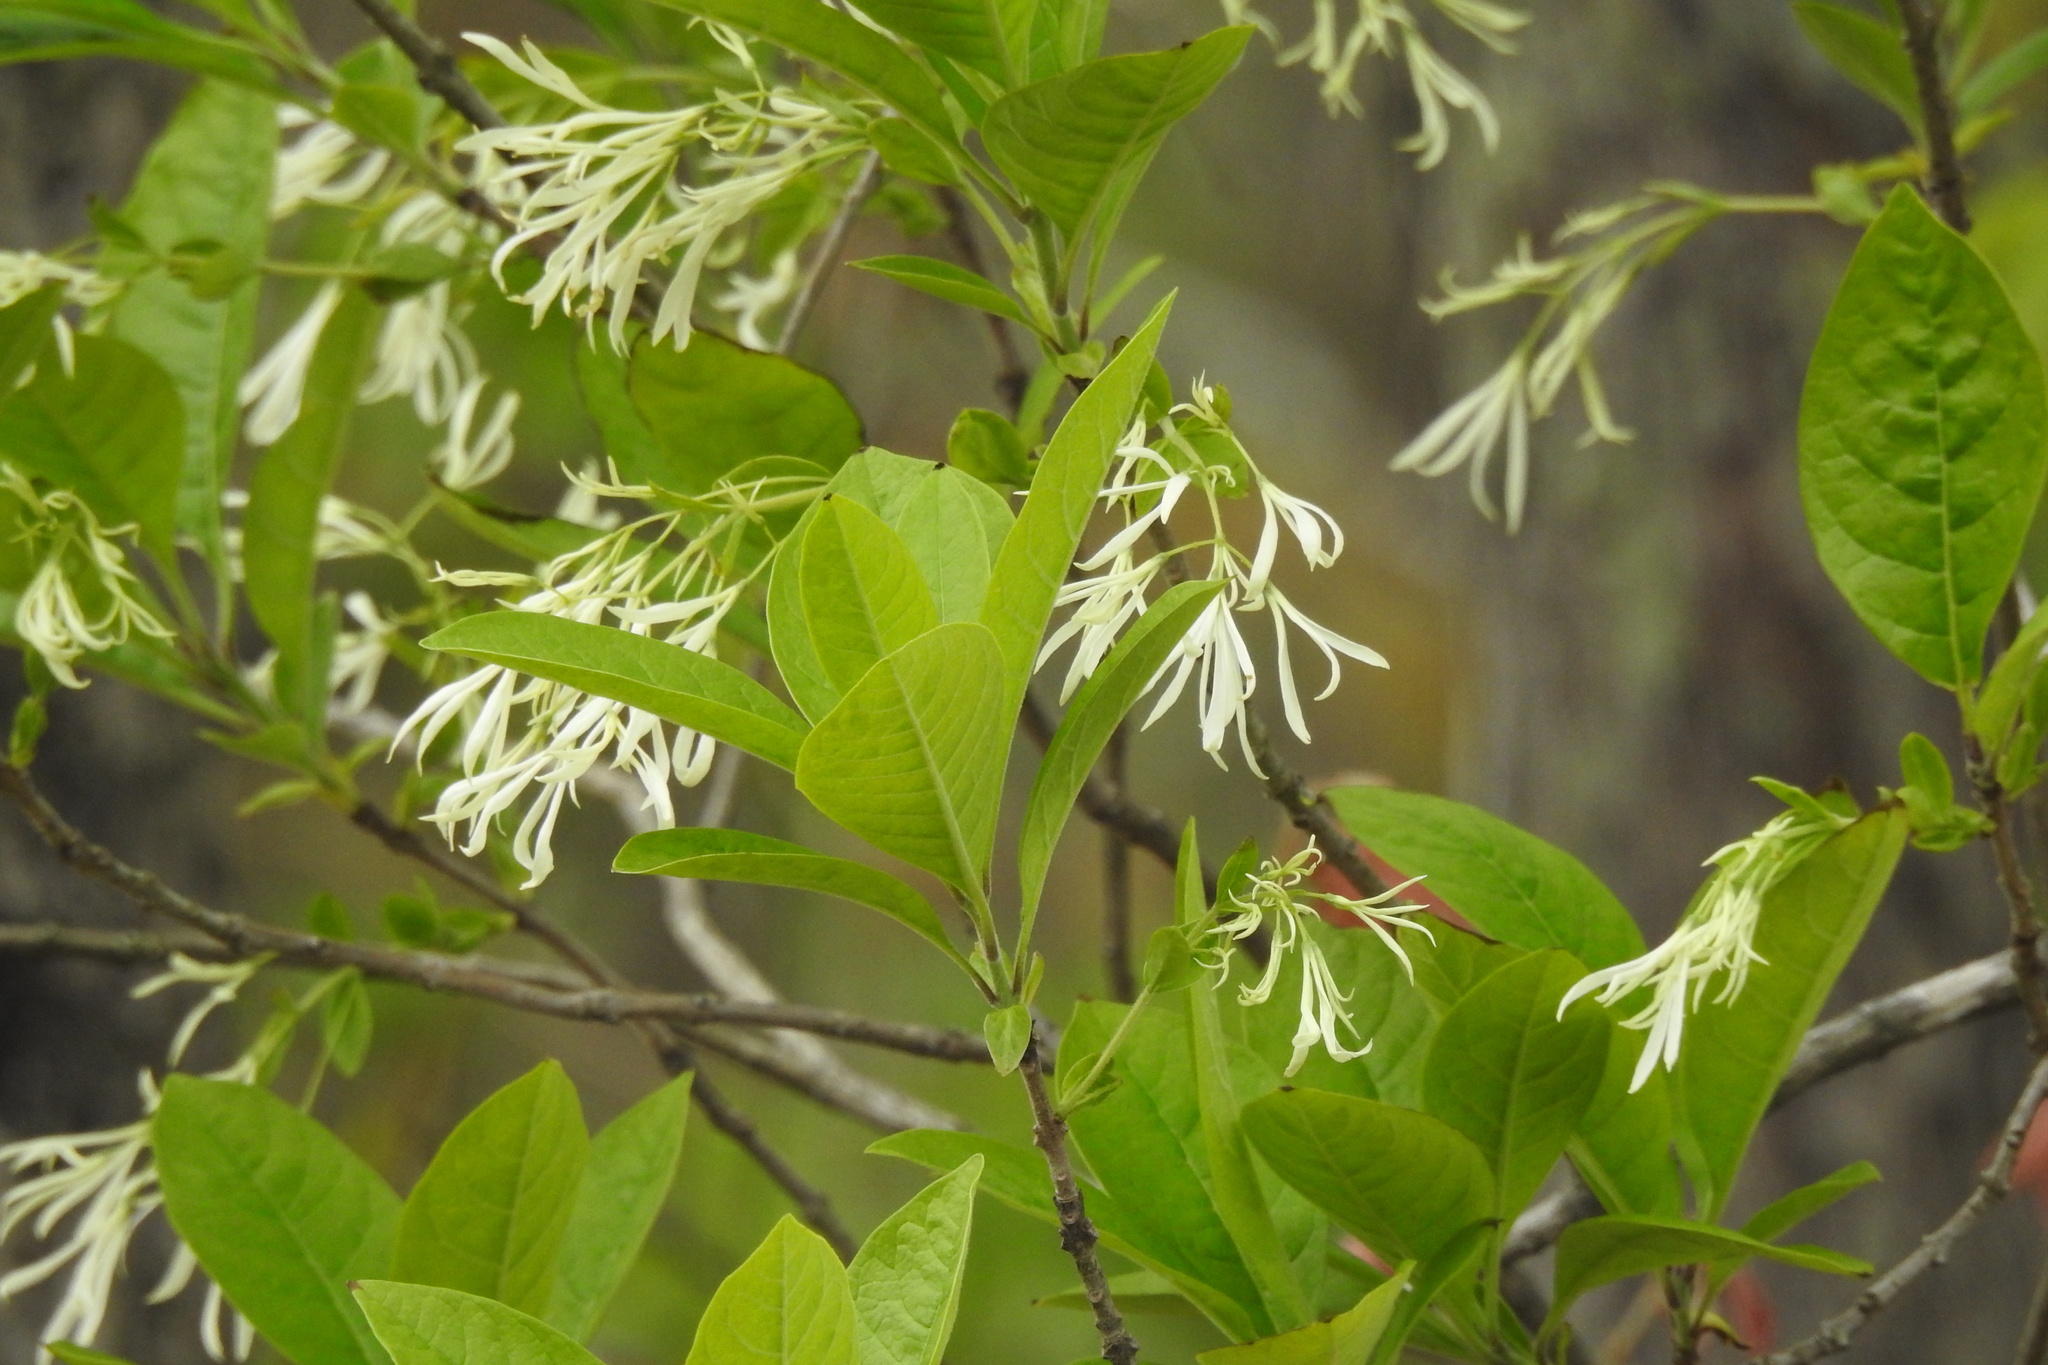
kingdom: Plantae
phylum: Tracheophyta
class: Magnoliopsida
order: Lamiales
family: Oleaceae
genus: Chionanthus
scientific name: Chionanthus virginicus
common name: American fringetree
